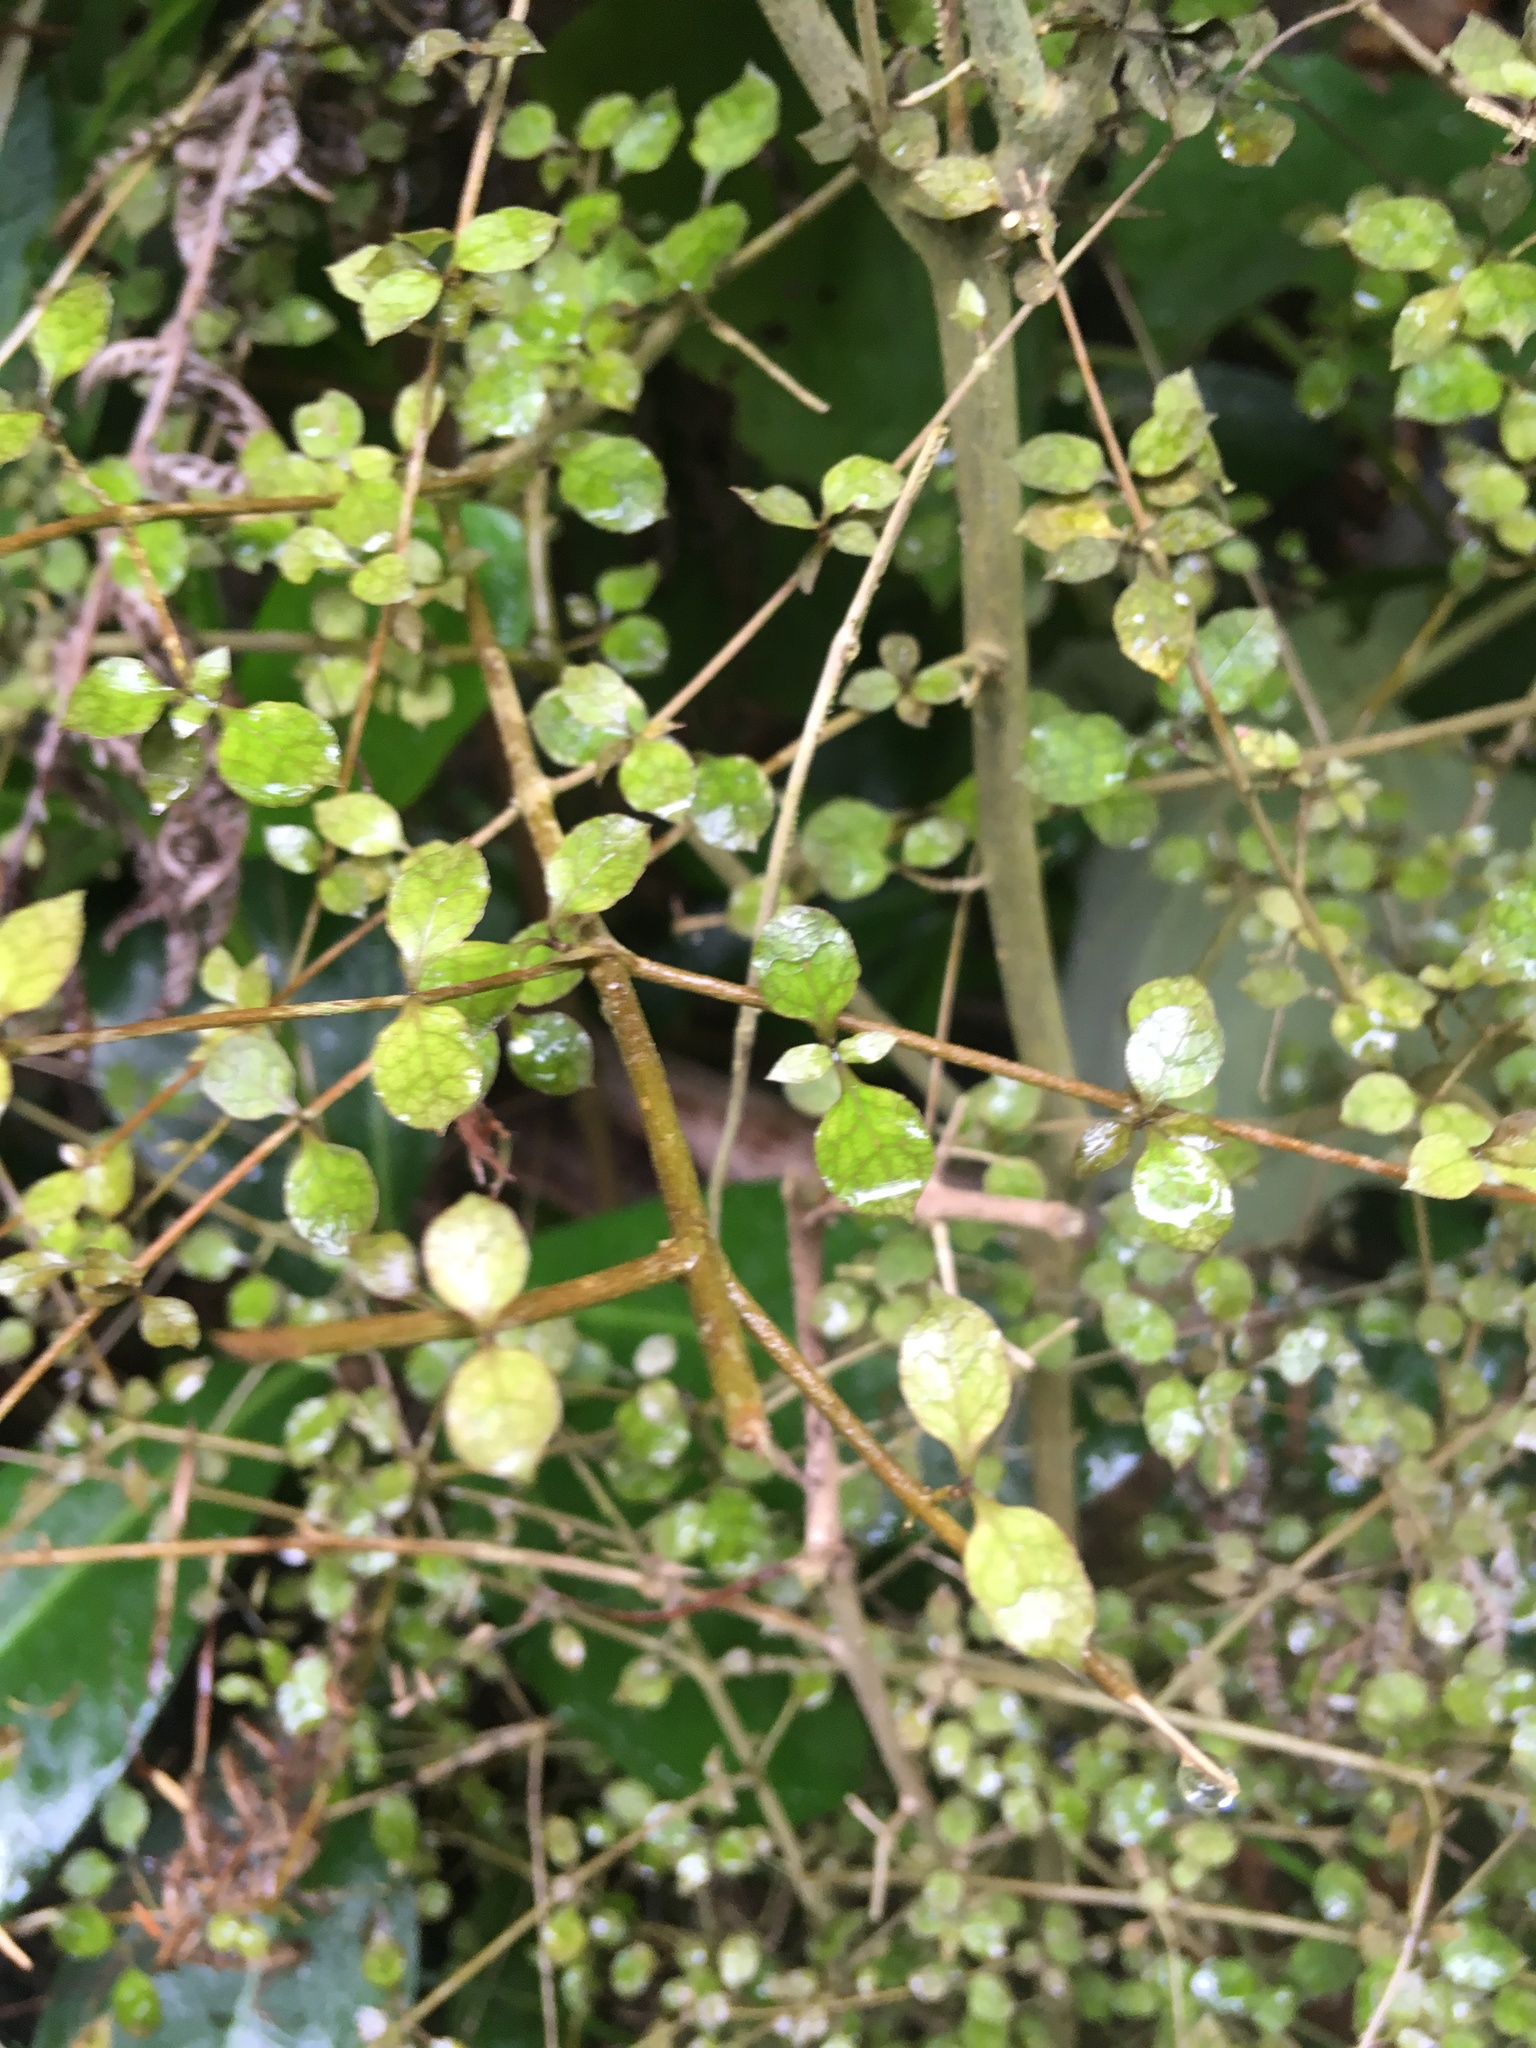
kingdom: Plantae
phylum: Tracheophyta
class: Magnoliopsida
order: Gentianales
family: Rubiaceae
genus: Coprosma
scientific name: Coprosma areolata
